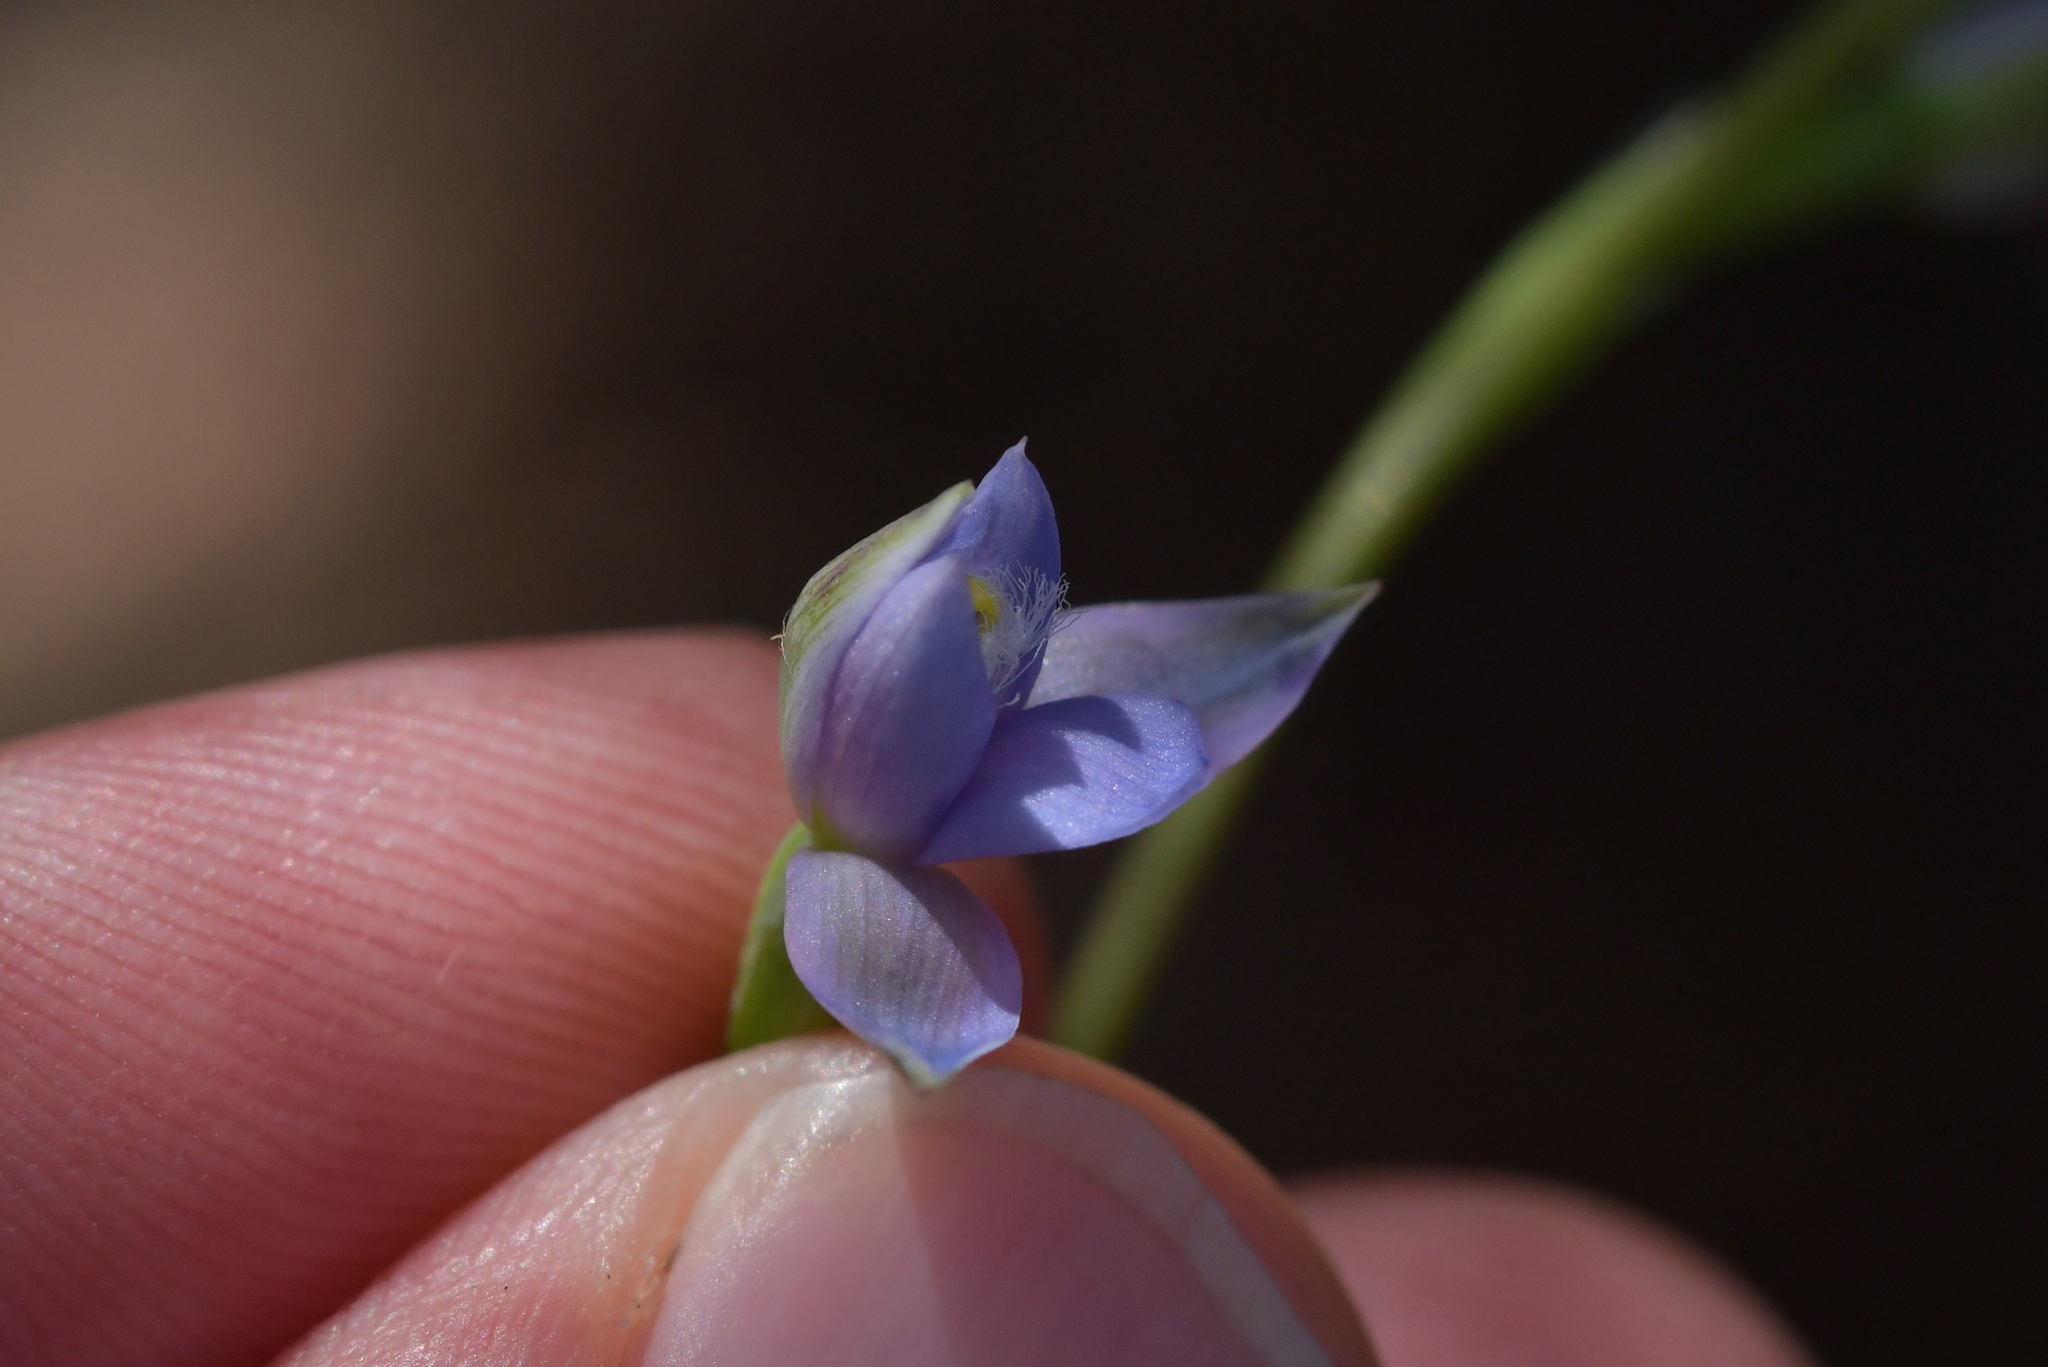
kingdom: Plantae
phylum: Tracheophyta
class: Liliopsida
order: Asparagales
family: Orchidaceae
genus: Thelymitra
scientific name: Thelymitra pauciflora
